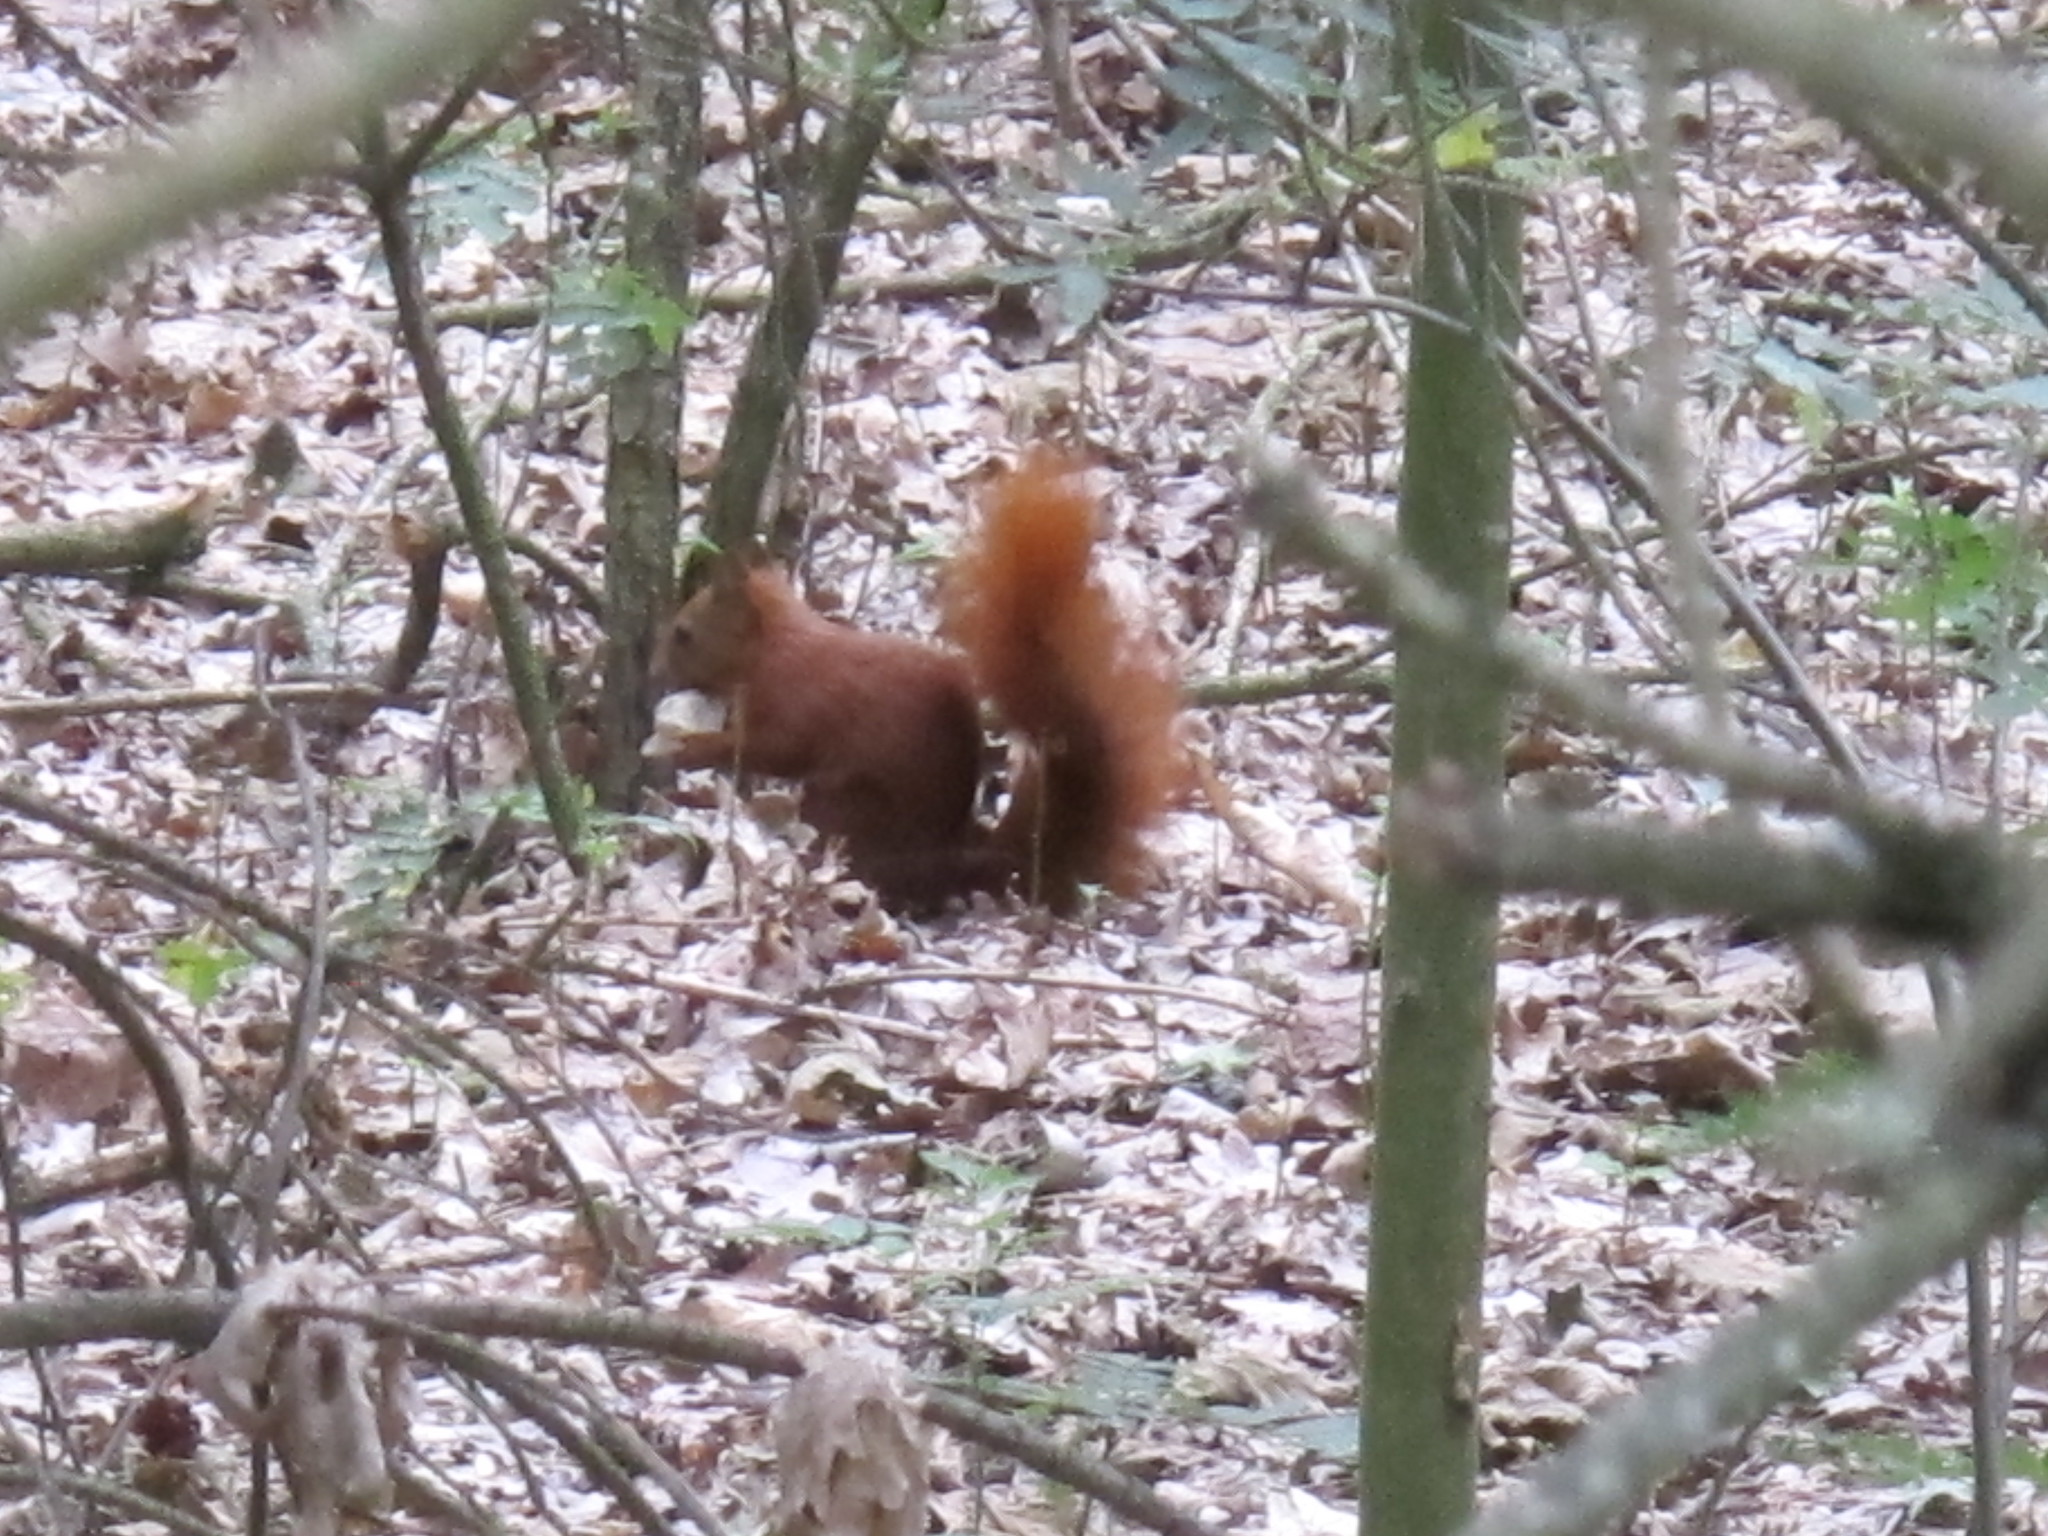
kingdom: Animalia
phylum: Chordata
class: Mammalia
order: Rodentia
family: Sciuridae
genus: Sciurus
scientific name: Sciurus vulgaris
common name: Eurasian red squirrel
